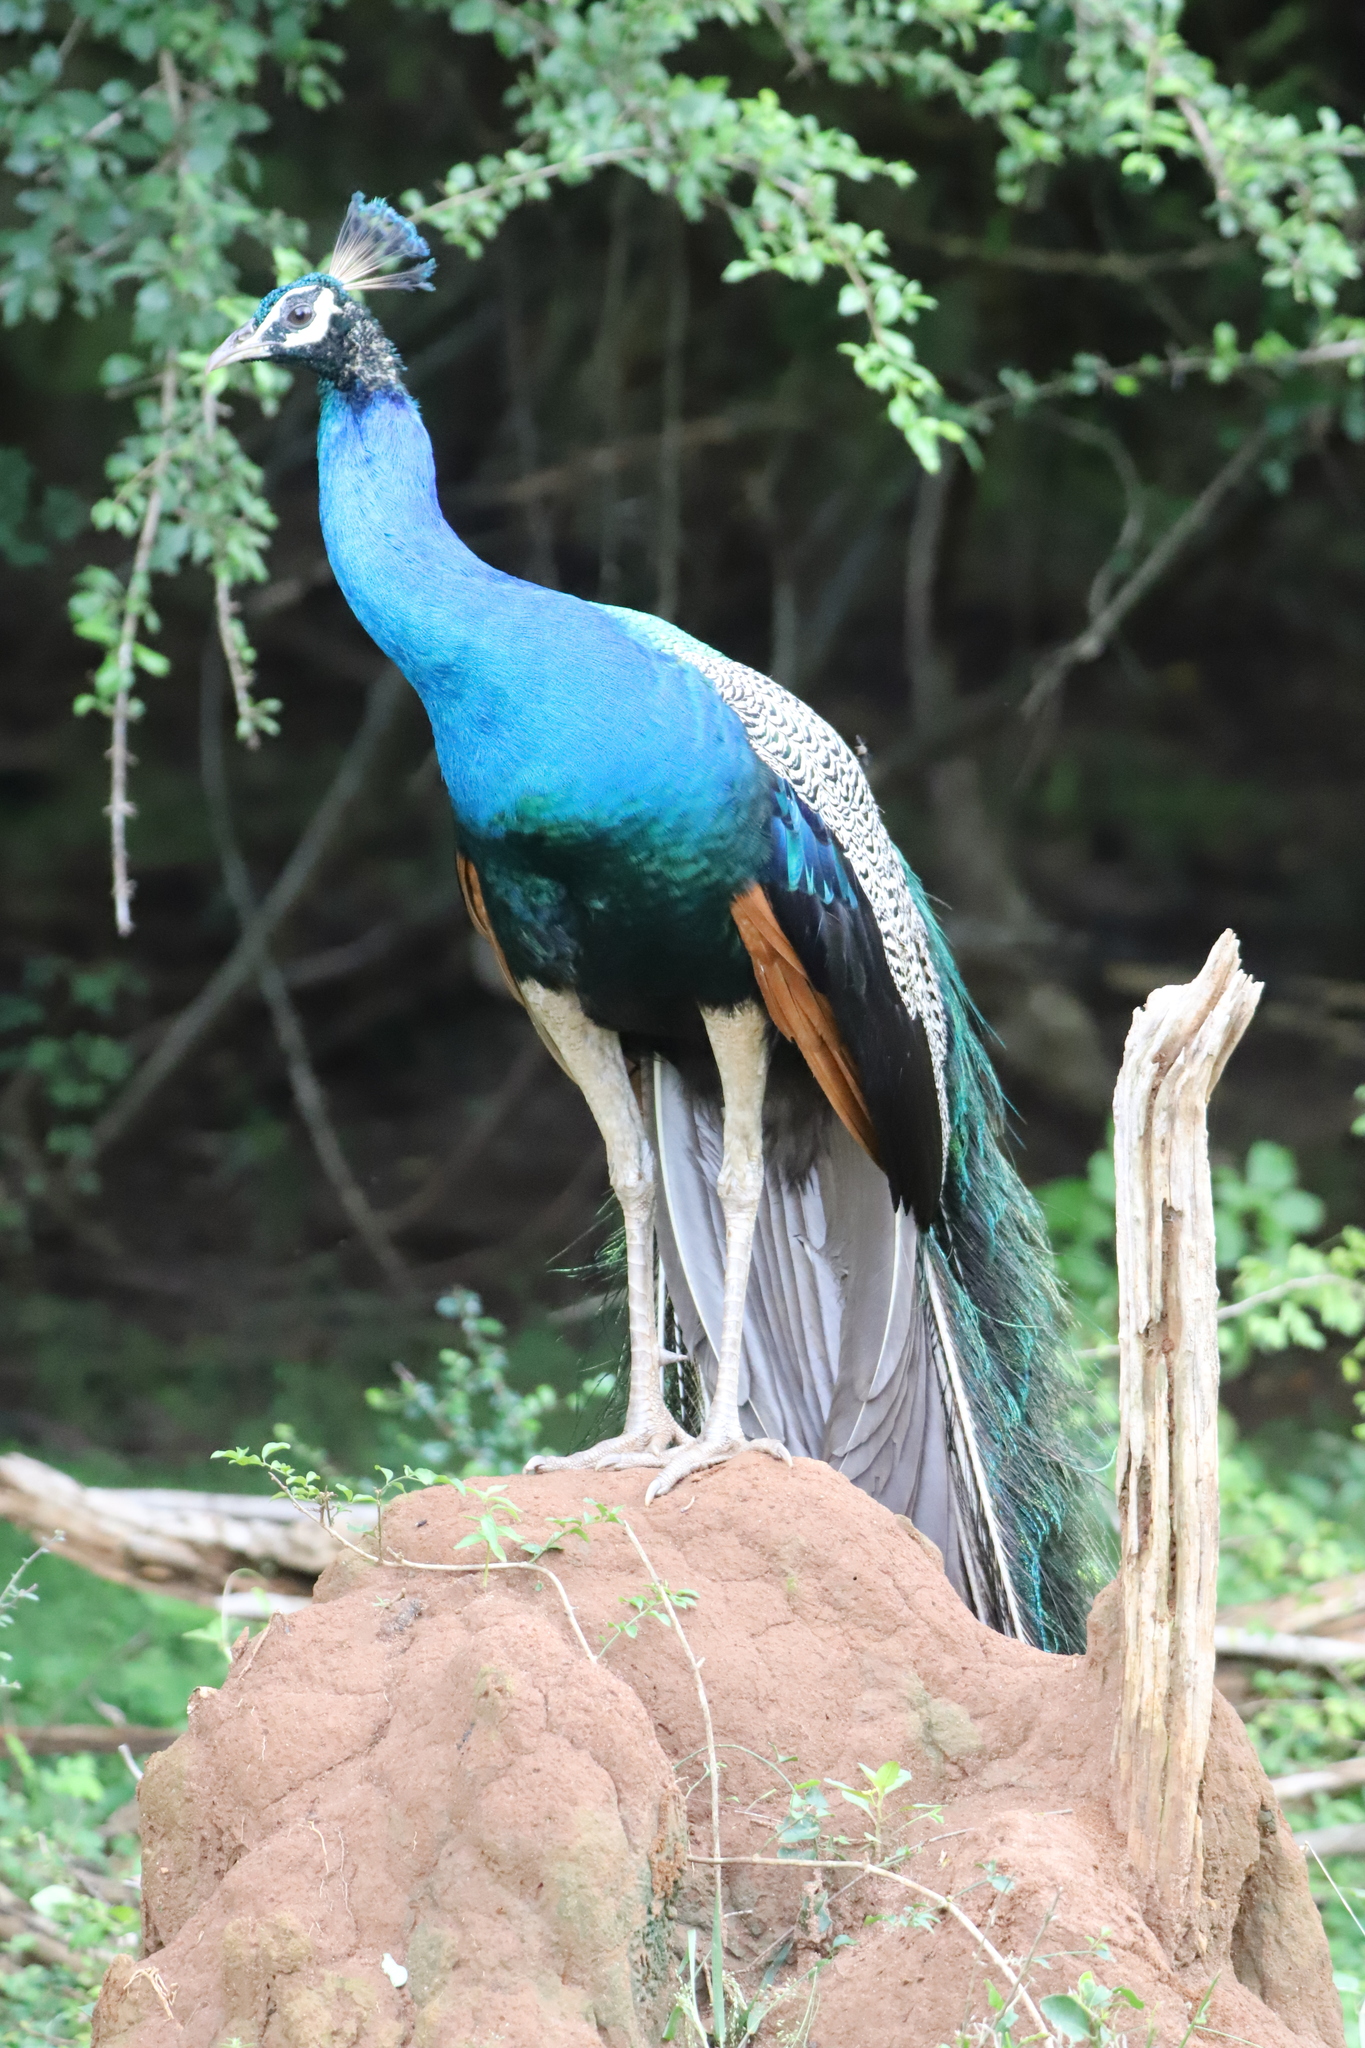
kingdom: Animalia
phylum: Chordata
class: Aves
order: Galliformes
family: Phasianidae
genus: Pavo
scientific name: Pavo cristatus
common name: Indian peafowl
